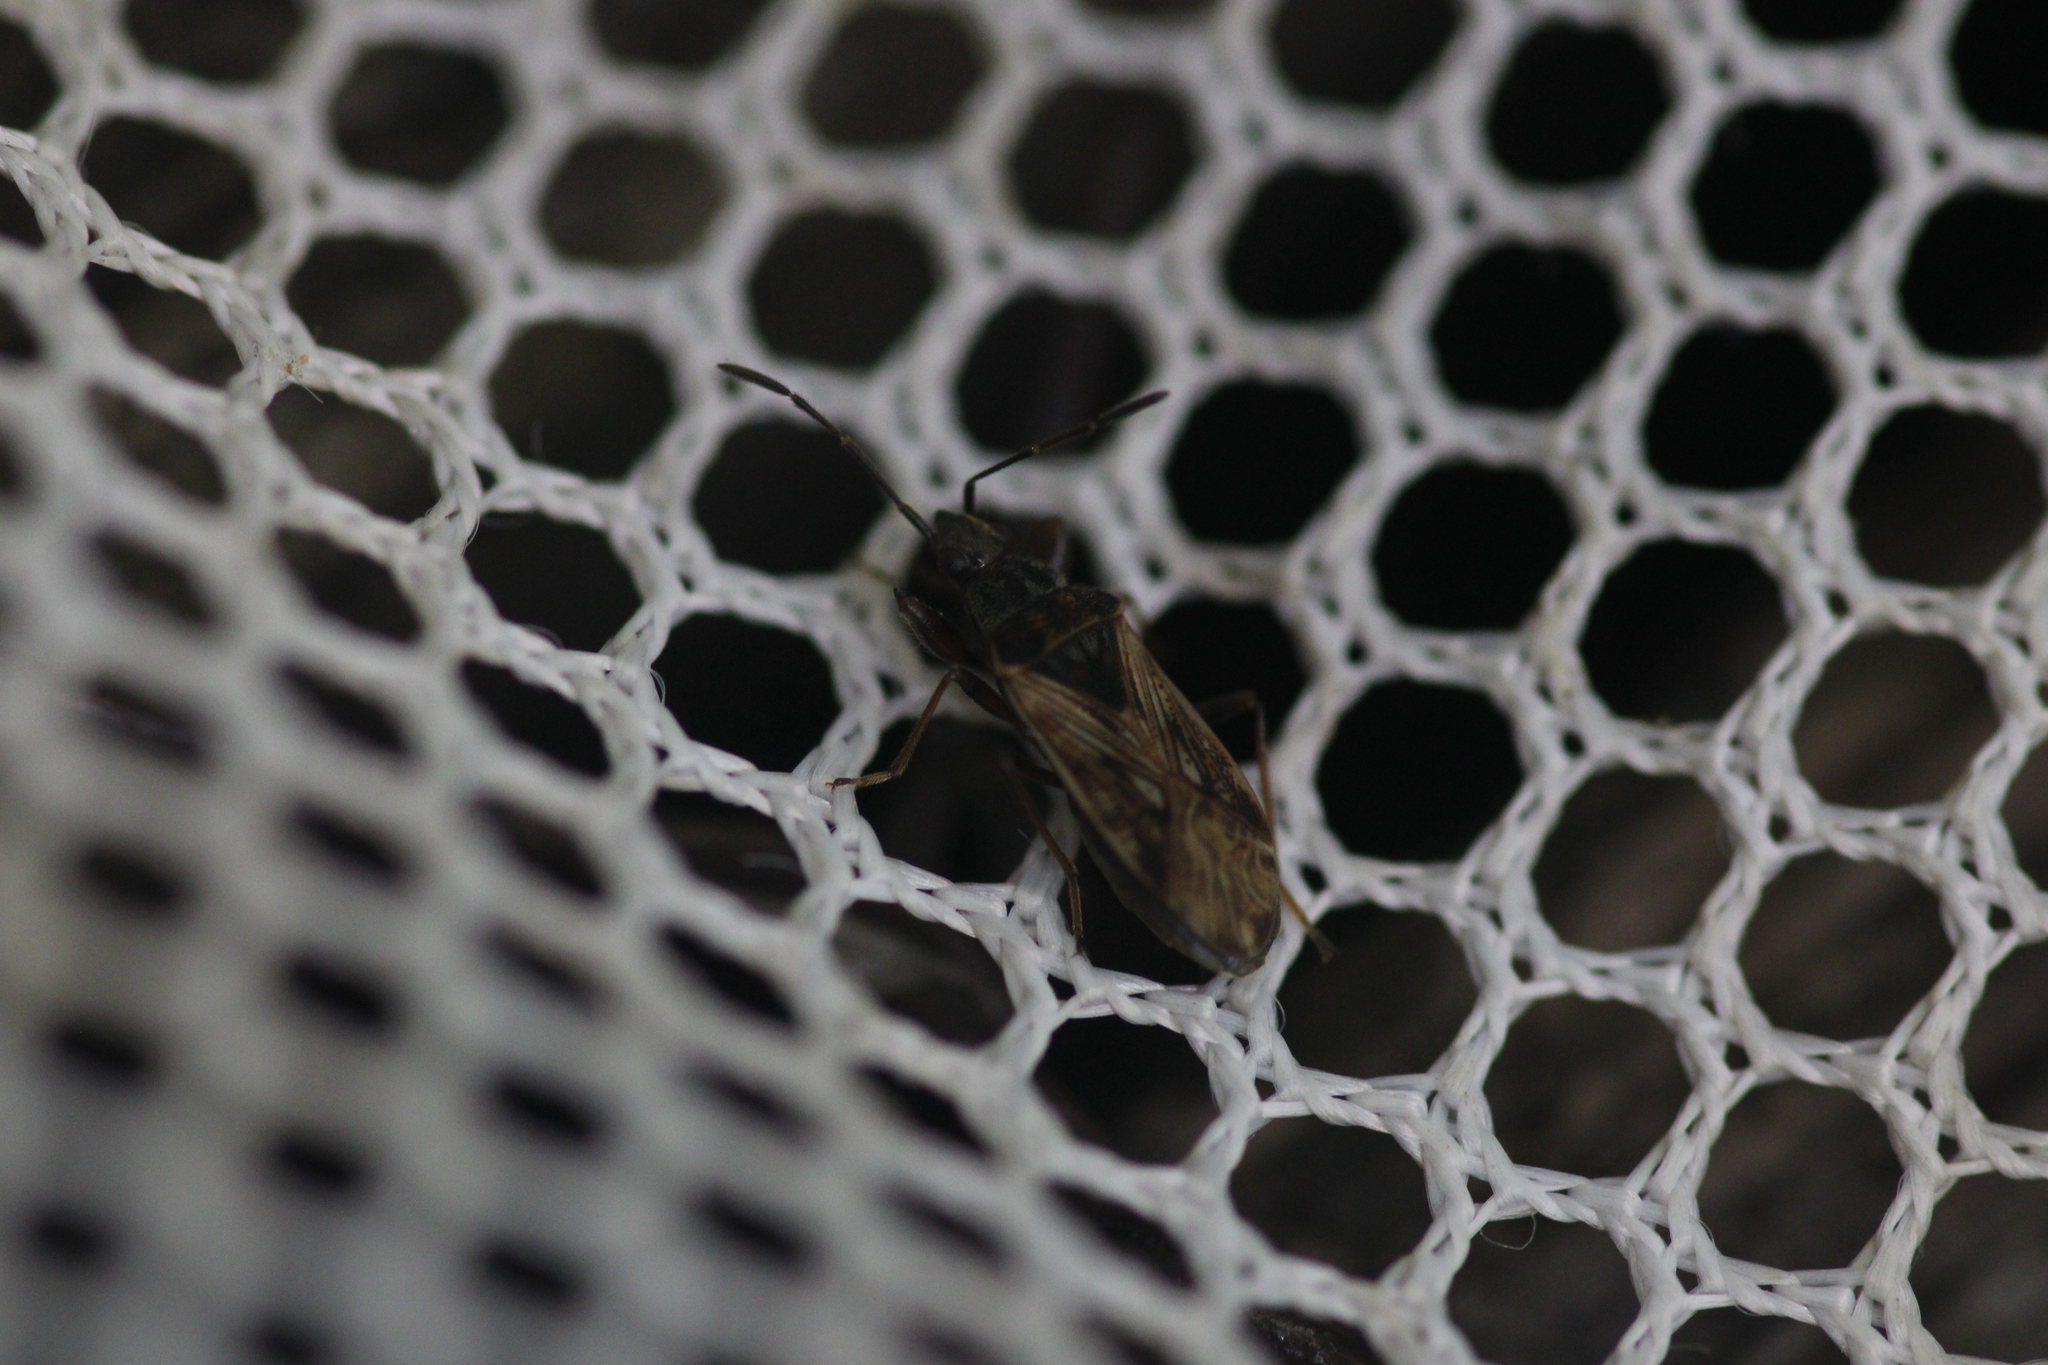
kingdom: Animalia
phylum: Arthropoda
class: Insecta
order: Hemiptera
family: Rhyparochromidae
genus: Pachybrachius
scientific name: Pachybrachius fracticollis
